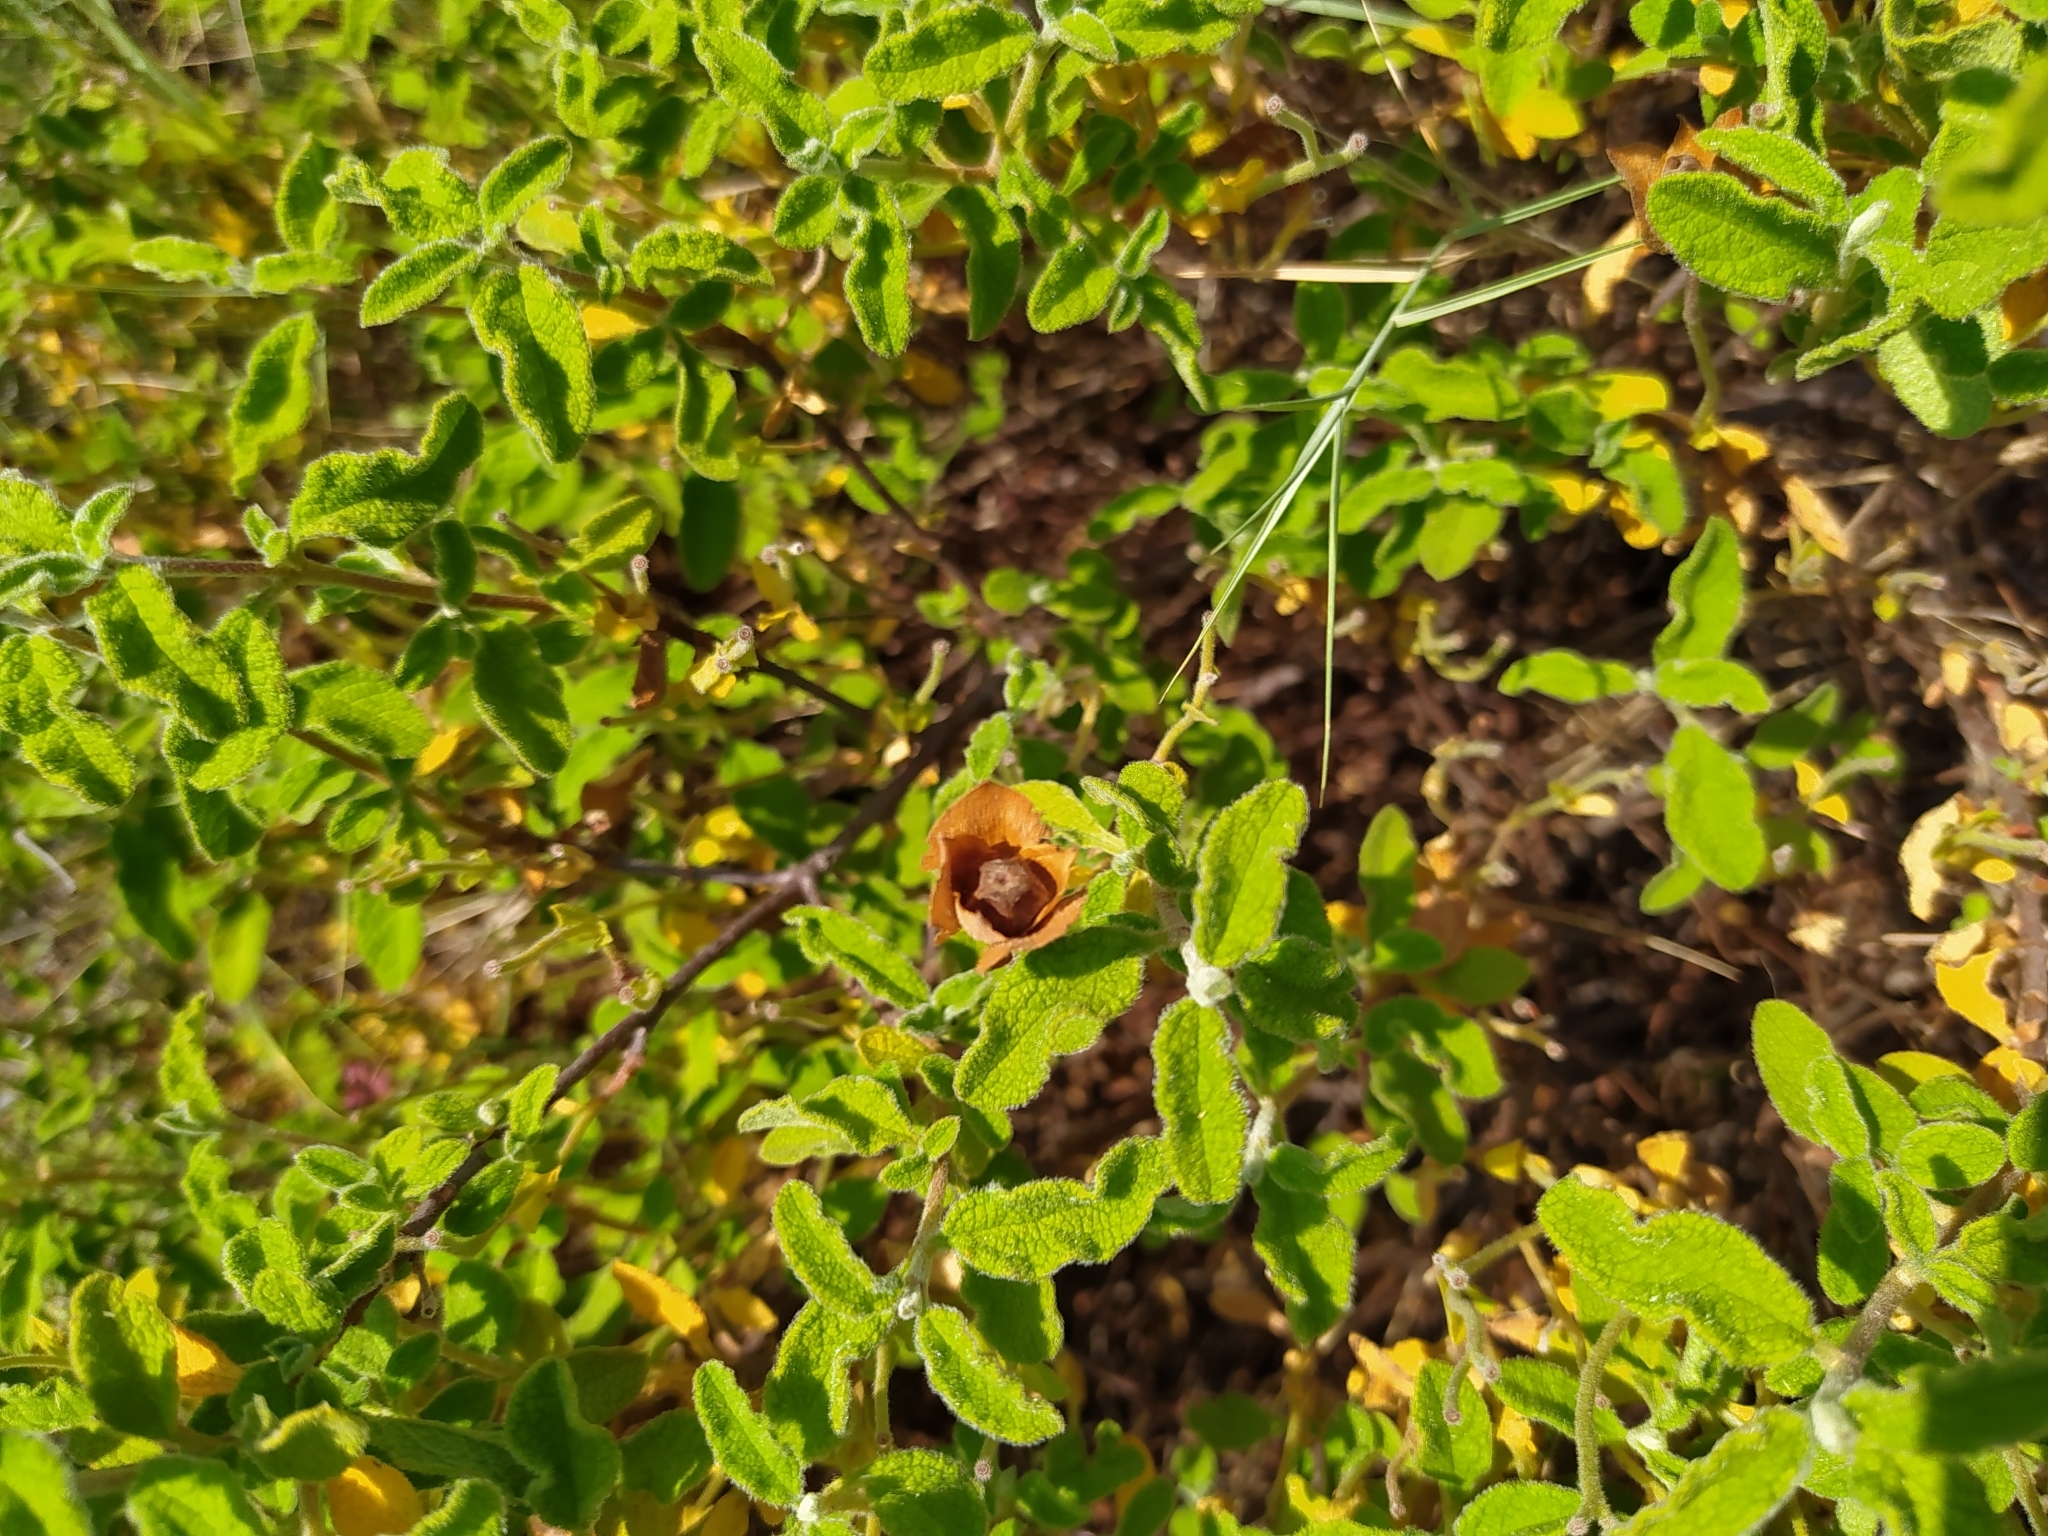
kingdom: Plantae
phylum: Tracheophyta
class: Magnoliopsida
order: Malvales
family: Cistaceae
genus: Cistus
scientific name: Cistus salviifolius
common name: Salvia cistus
